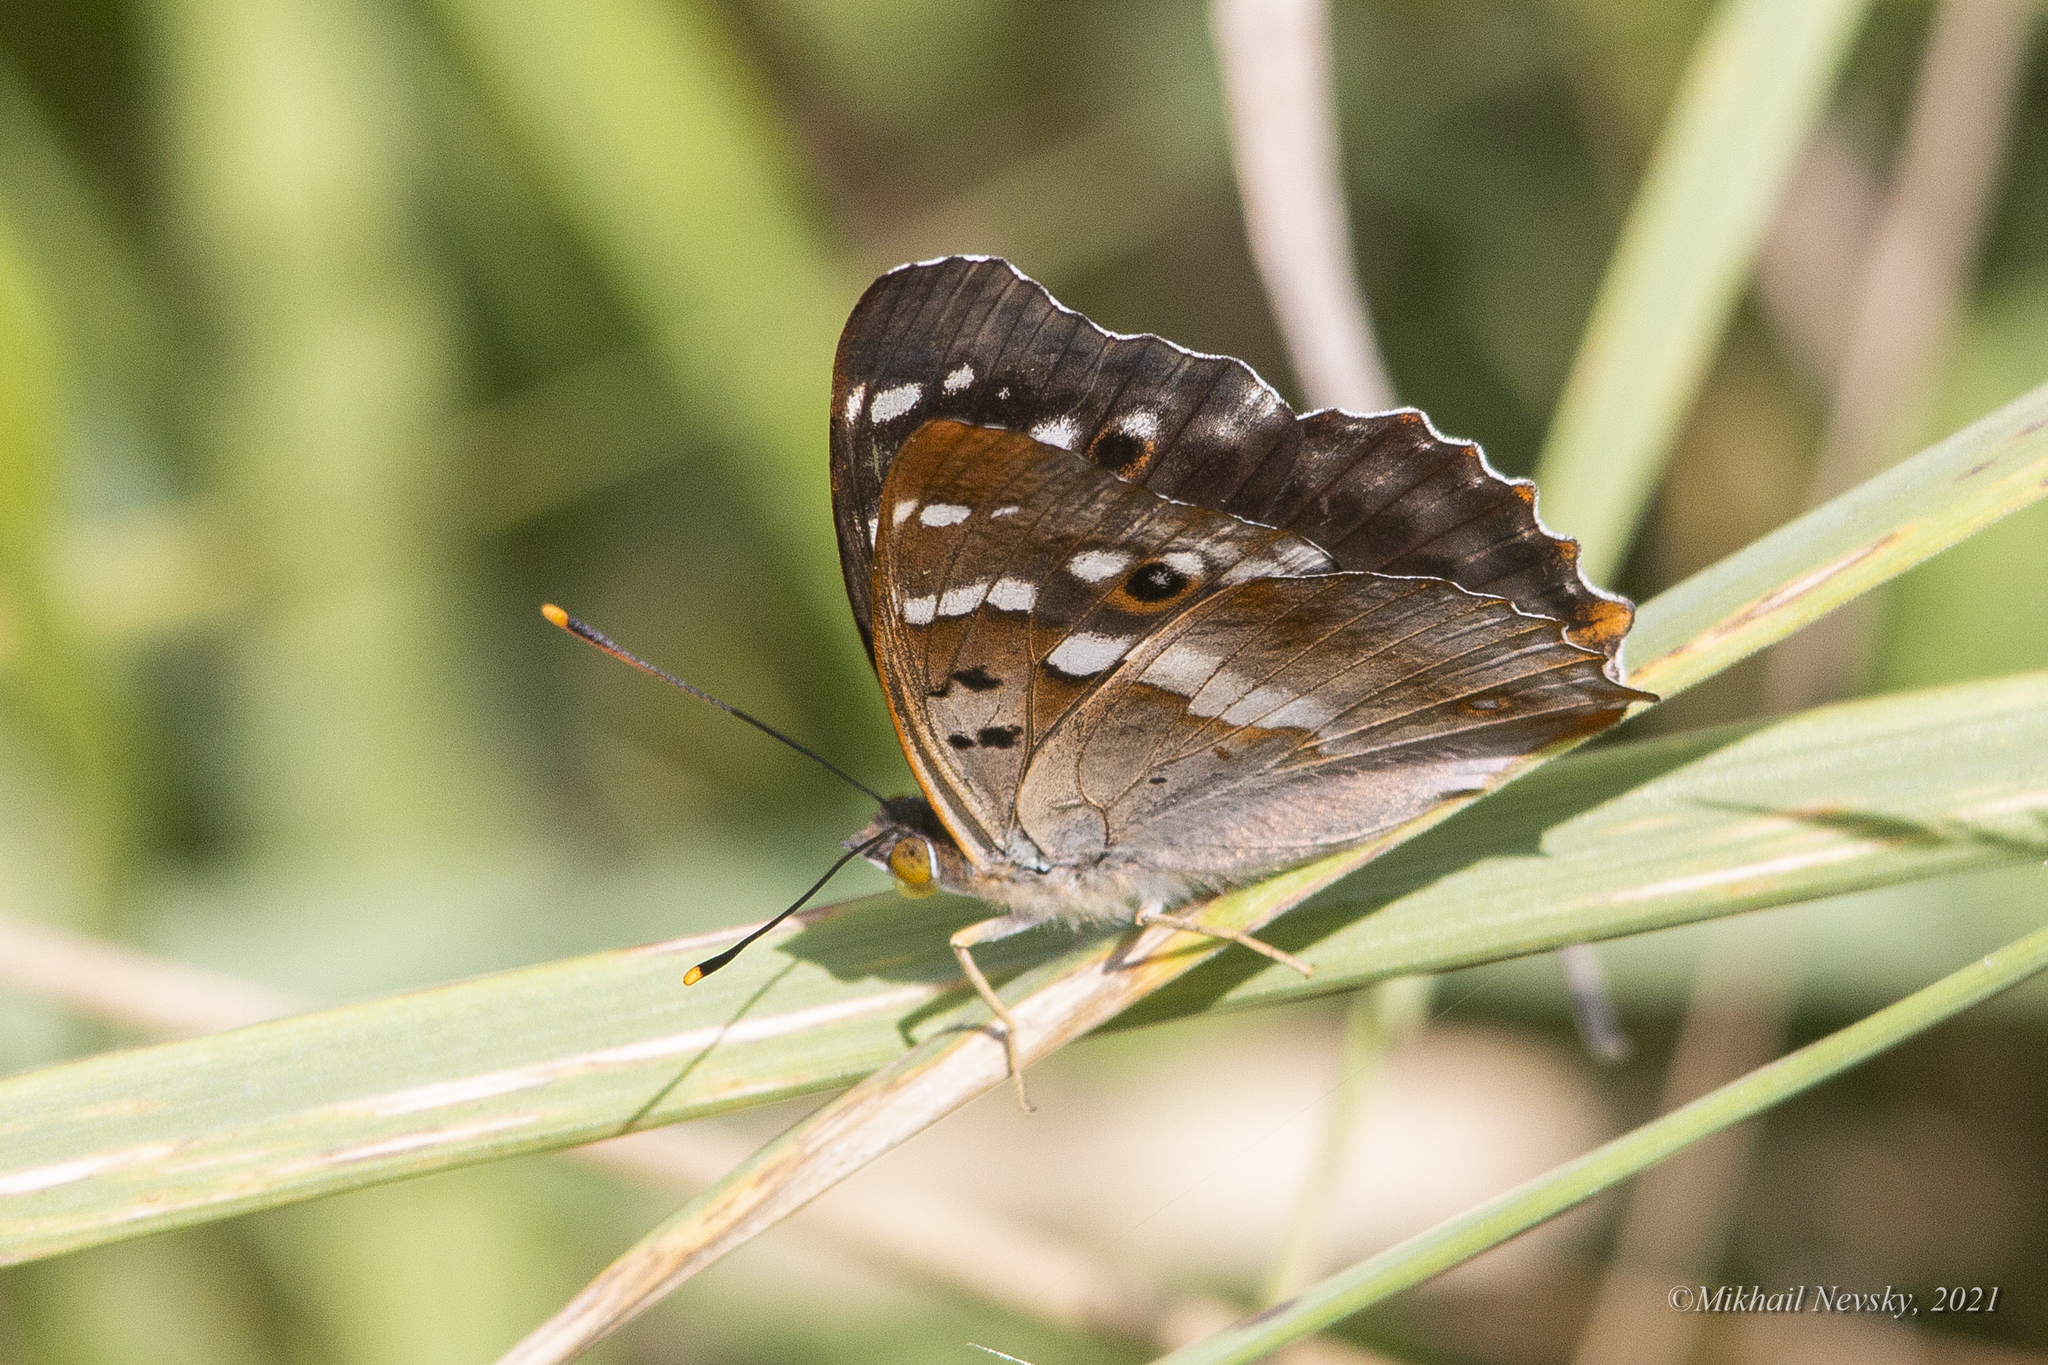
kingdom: Animalia
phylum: Arthropoda
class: Insecta
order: Lepidoptera
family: Nymphalidae
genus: Apatura
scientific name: Apatura ilia
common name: Lesser purple emperor
